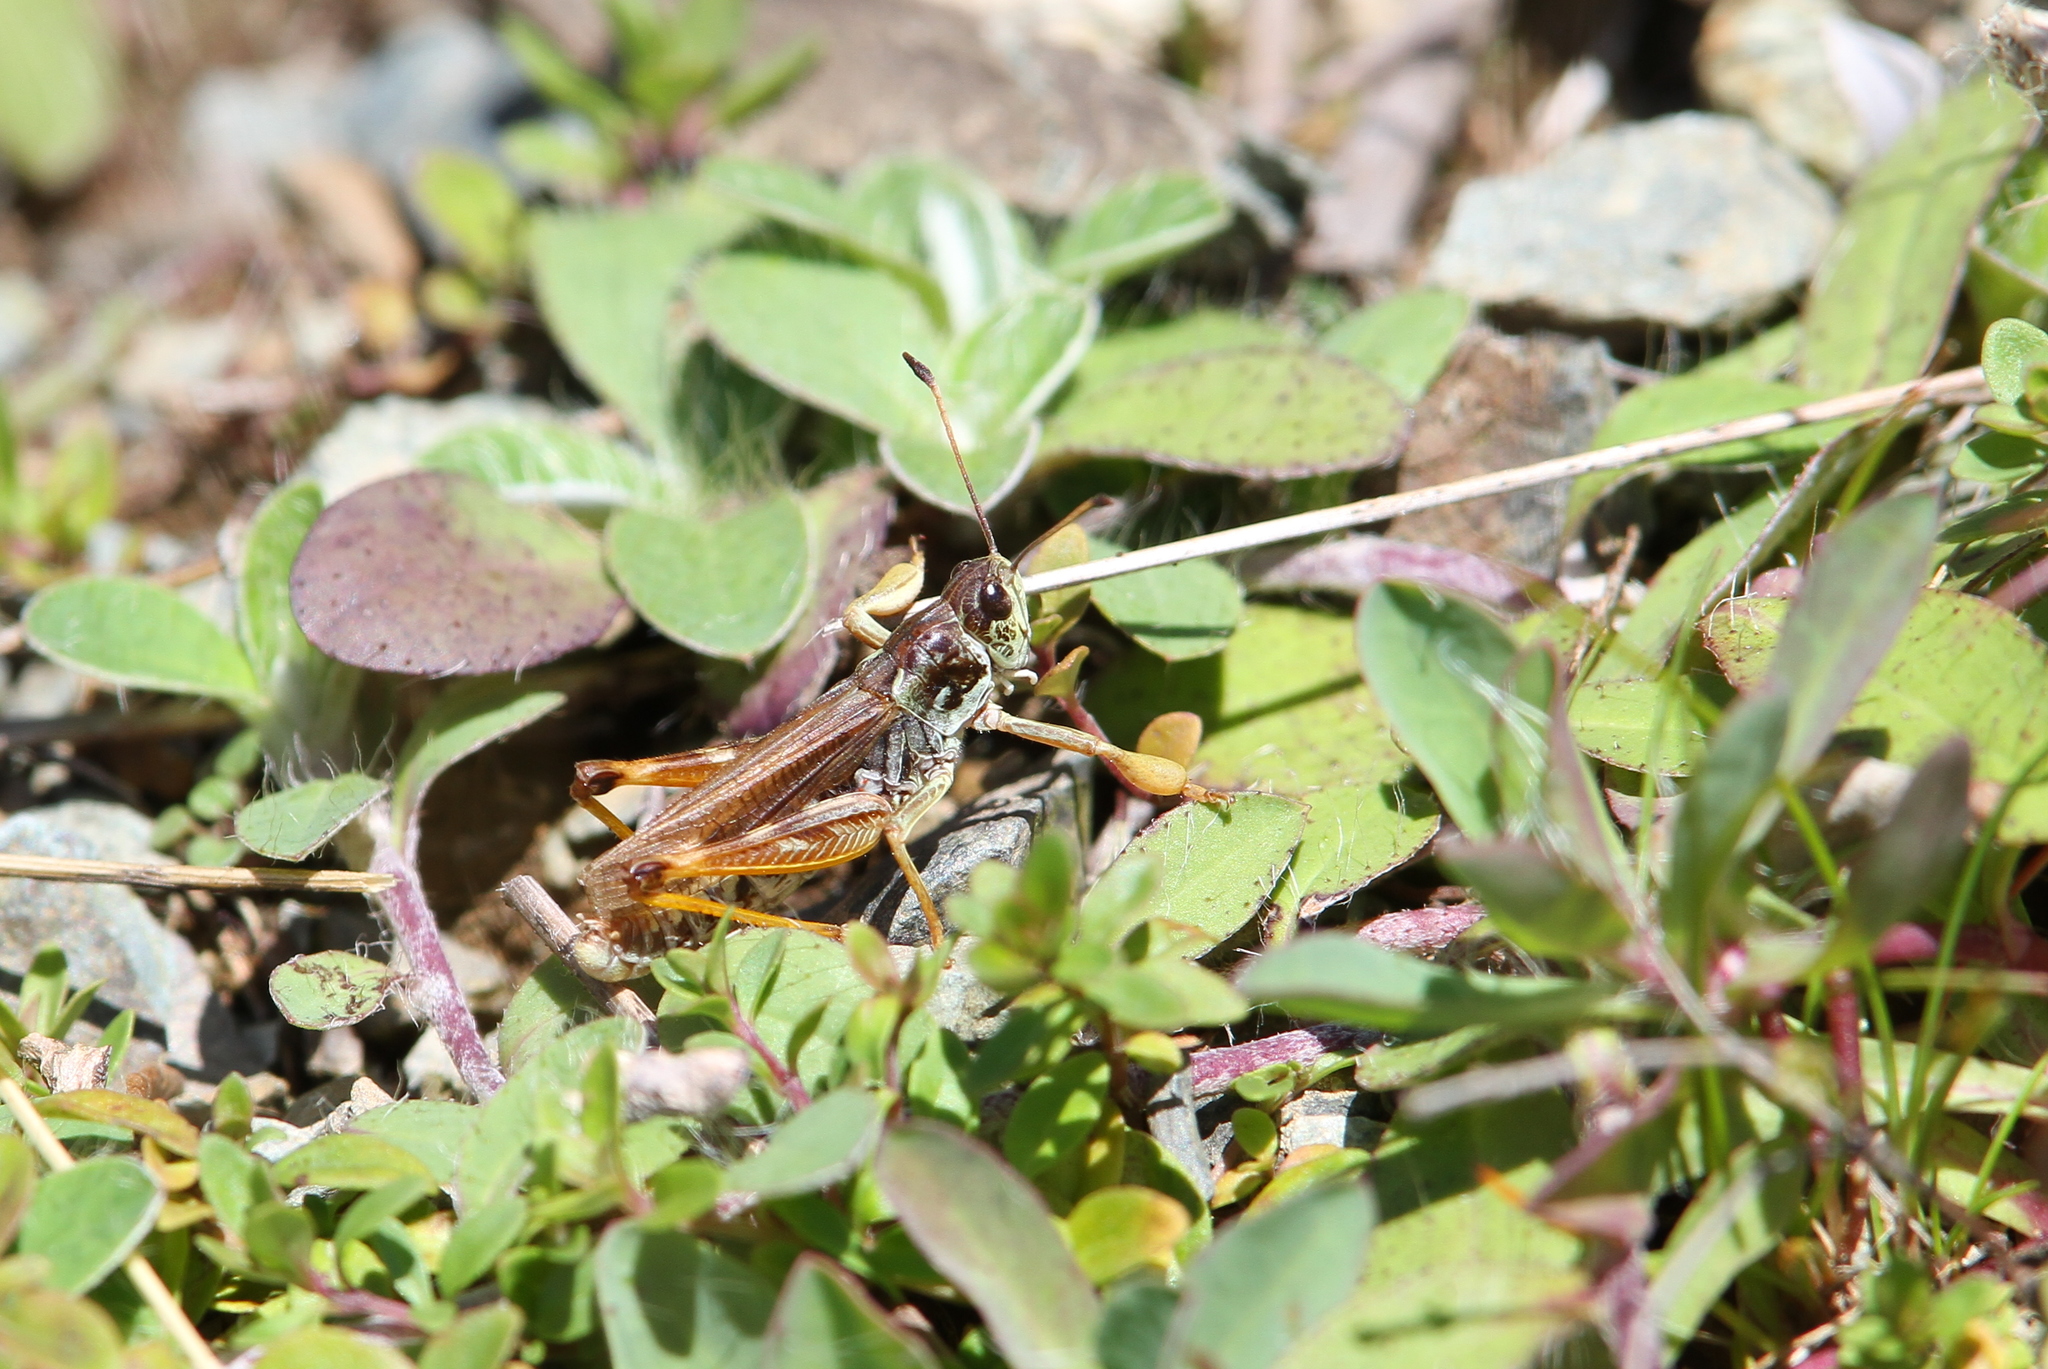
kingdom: Animalia
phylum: Arthropoda
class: Insecta
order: Orthoptera
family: Acrididae
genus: Gomphocerus
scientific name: Gomphocerus sibiricus
